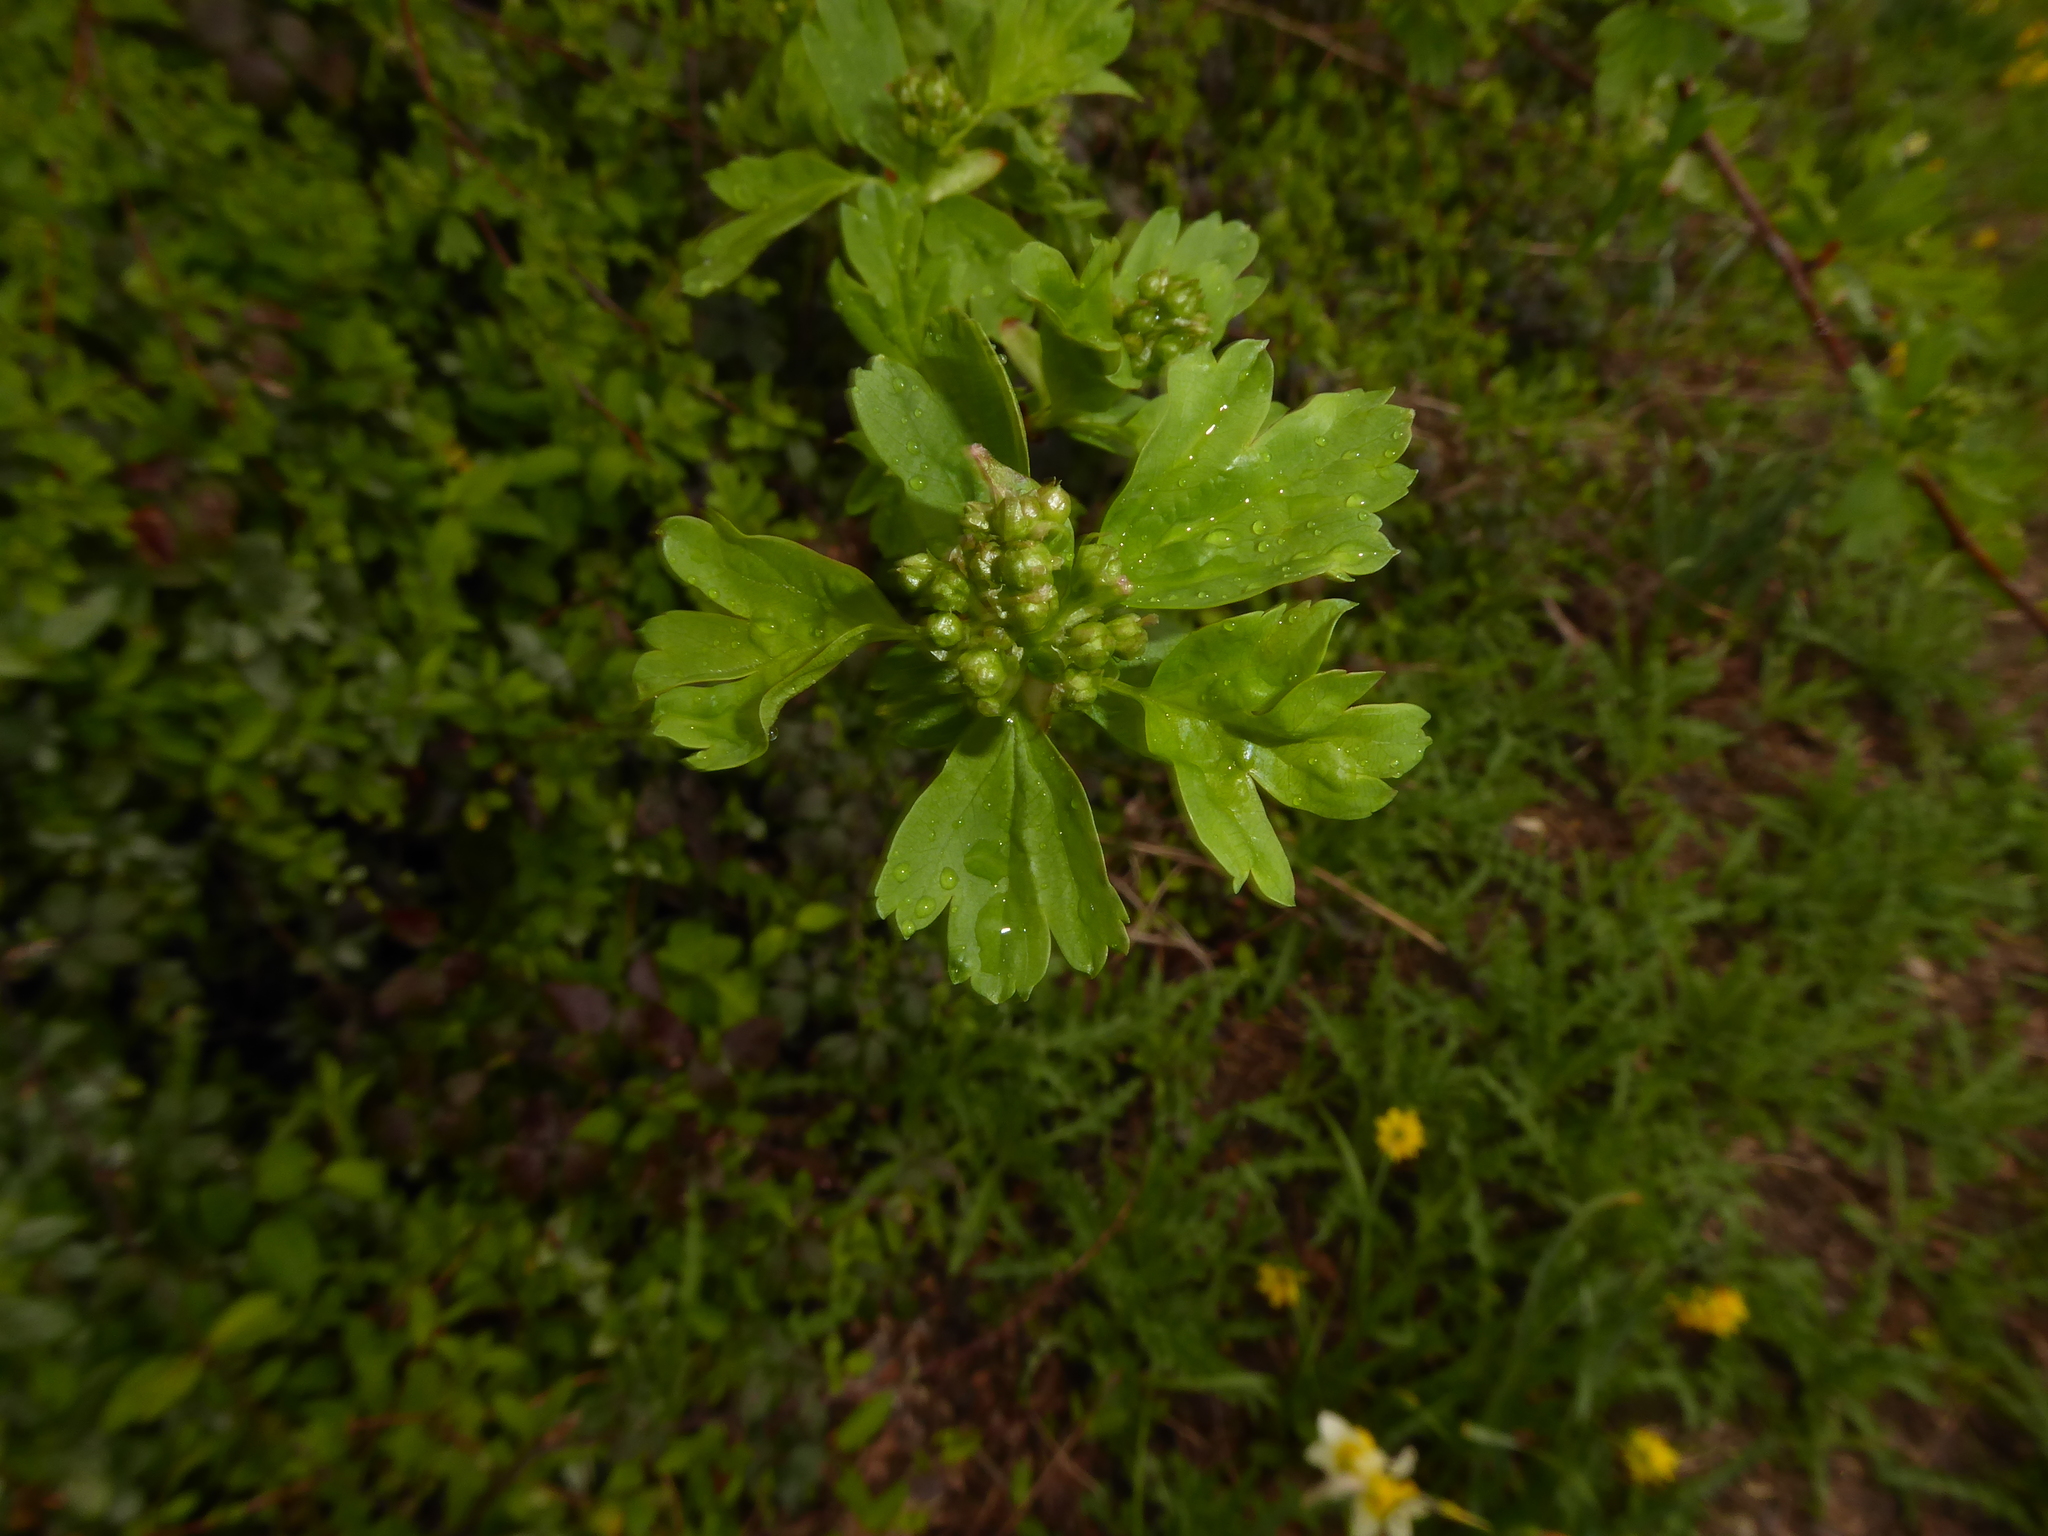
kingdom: Plantae
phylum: Tracheophyta
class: Magnoliopsida
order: Rosales
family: Rosaceae
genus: Crataegus
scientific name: Crataegus monogyna
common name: Hawthorn
